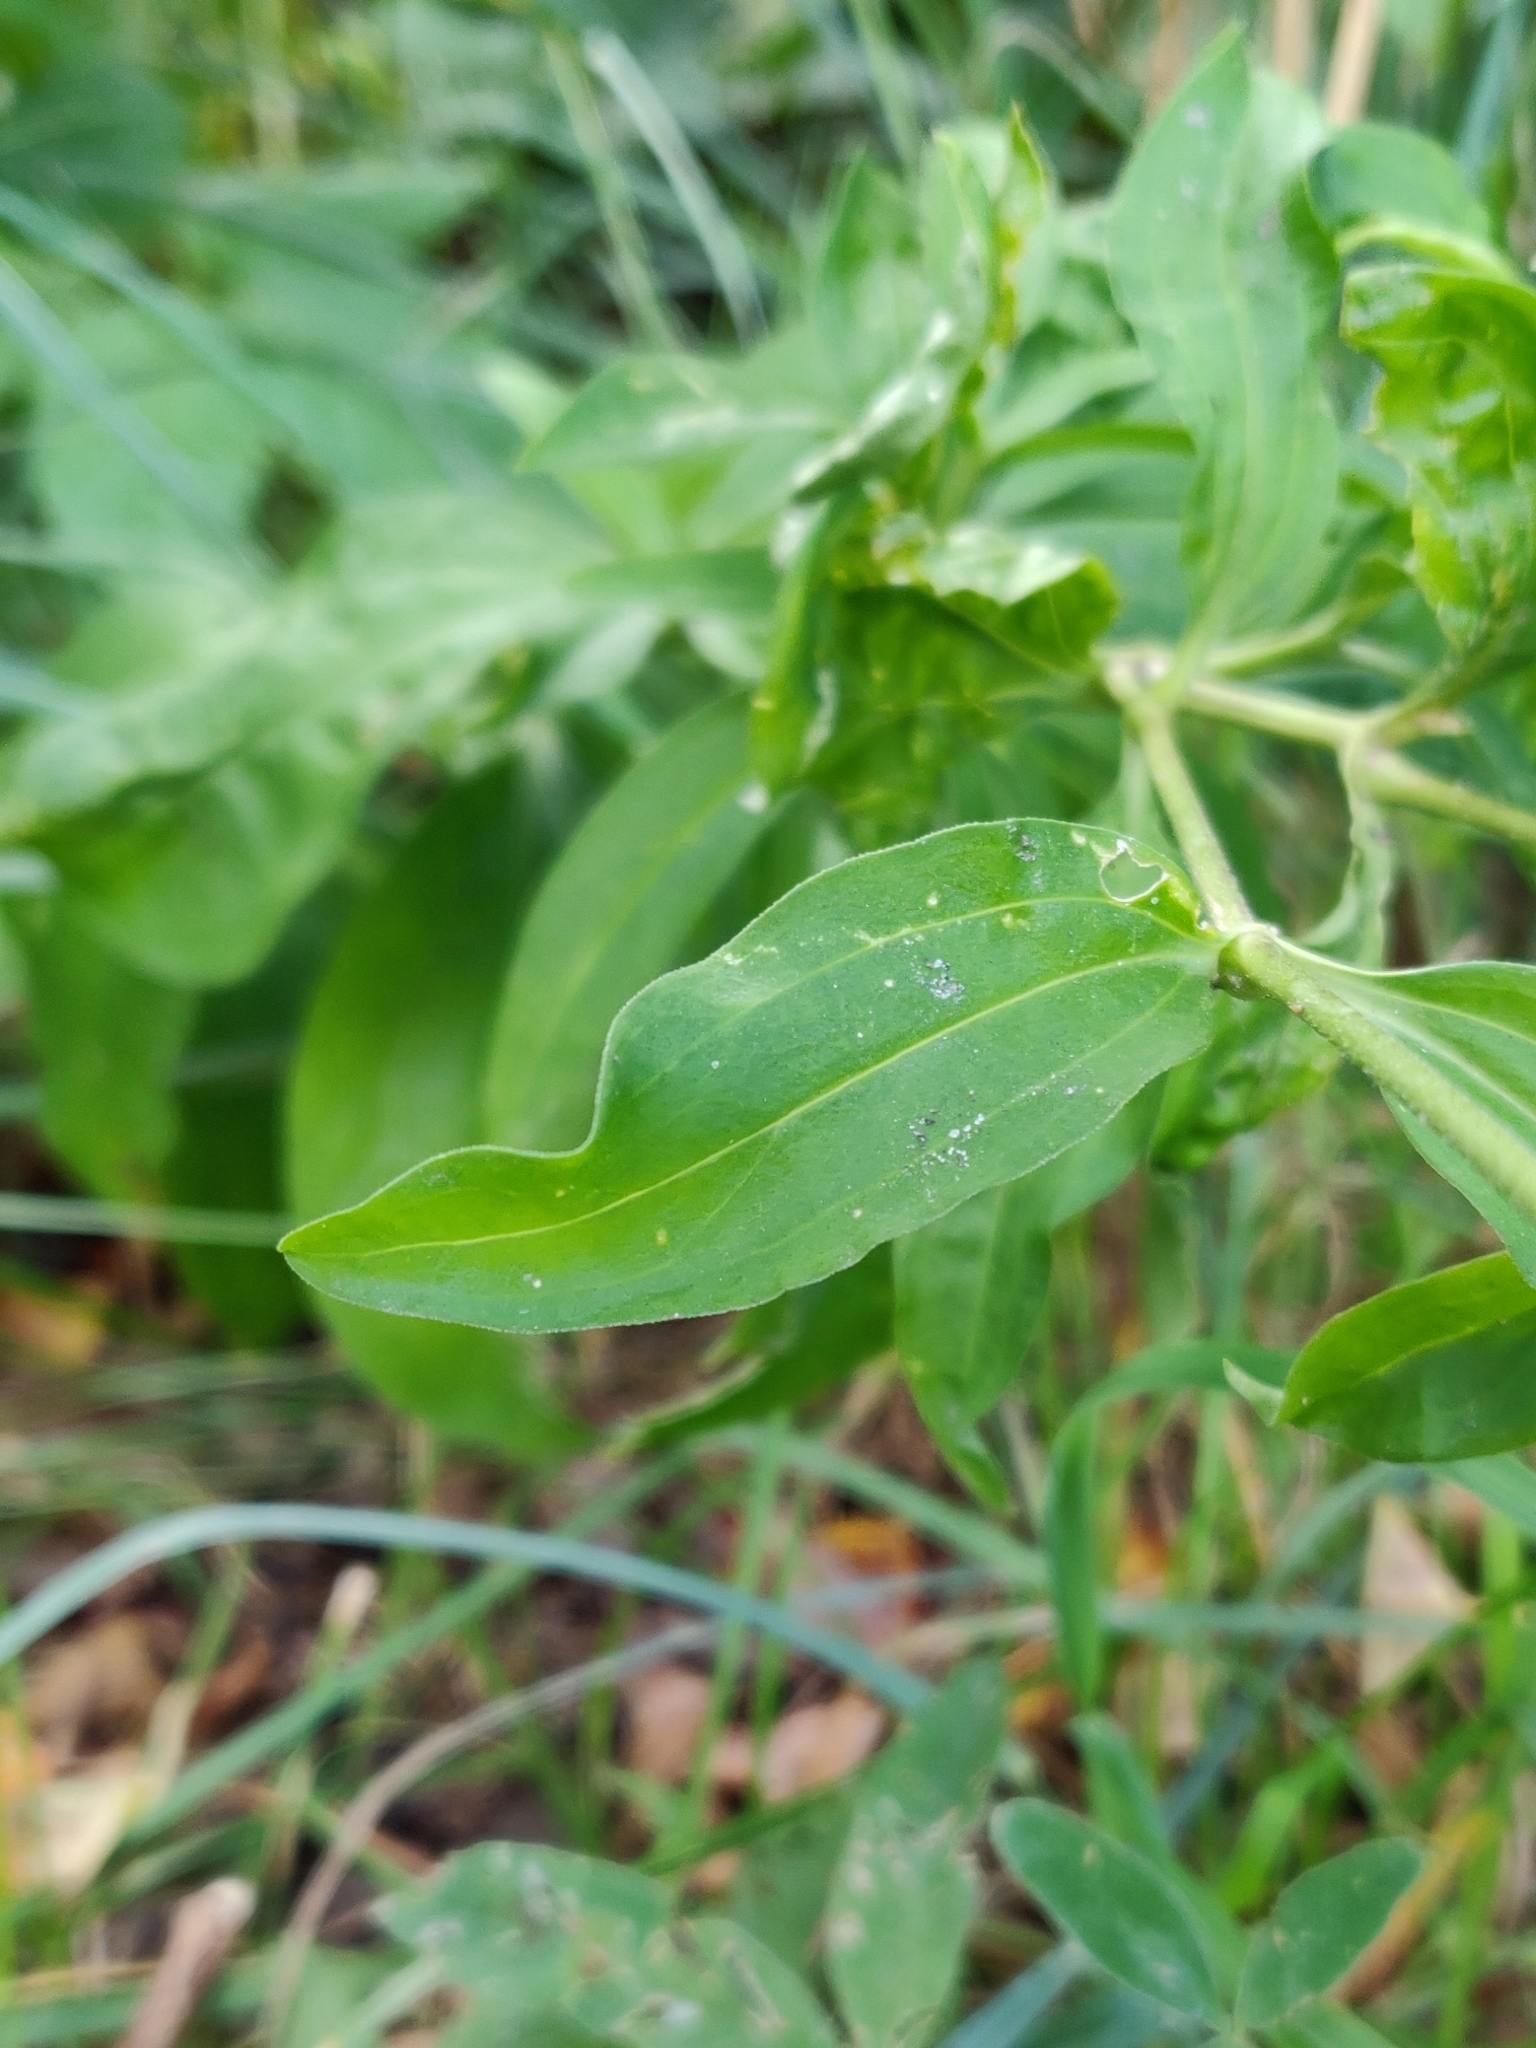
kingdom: Plantae
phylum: Tracheophyta
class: Magnoliopsida
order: Caryophyllales
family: Caryophyllaceae
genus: Saponaria
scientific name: Saponaria officinalis
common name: Soapwort
